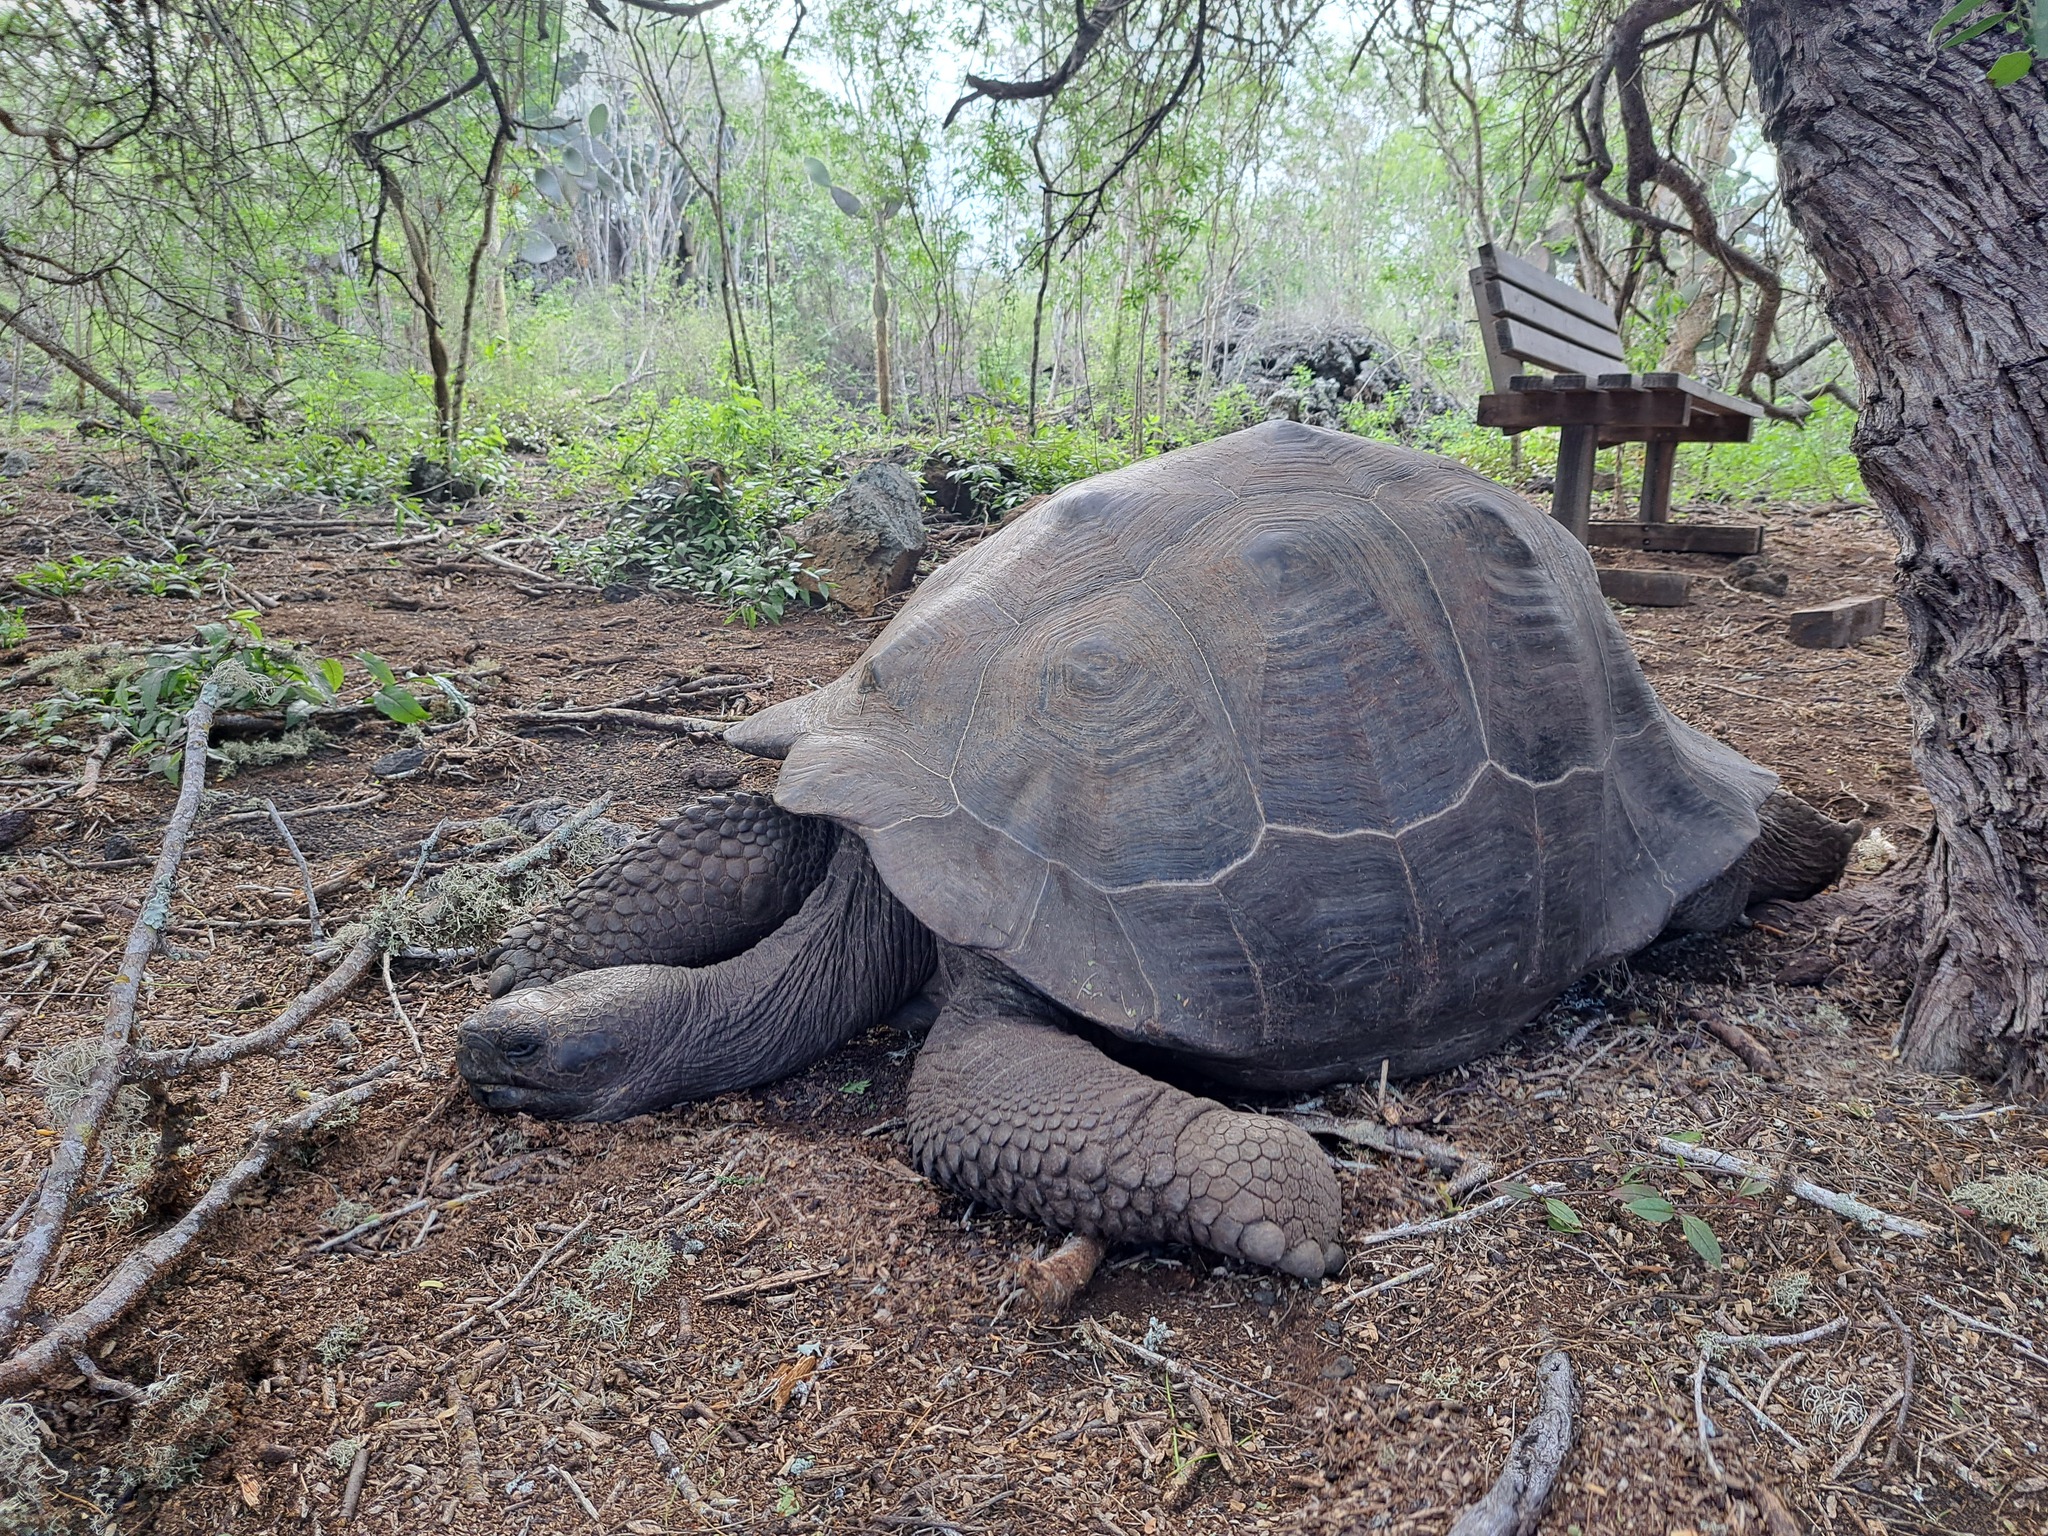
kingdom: Animalia
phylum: Chordata
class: Testudines
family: Testudinidae
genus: Chelonoidis
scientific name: Chelonoidis niger
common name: Charles island giant tortoise
